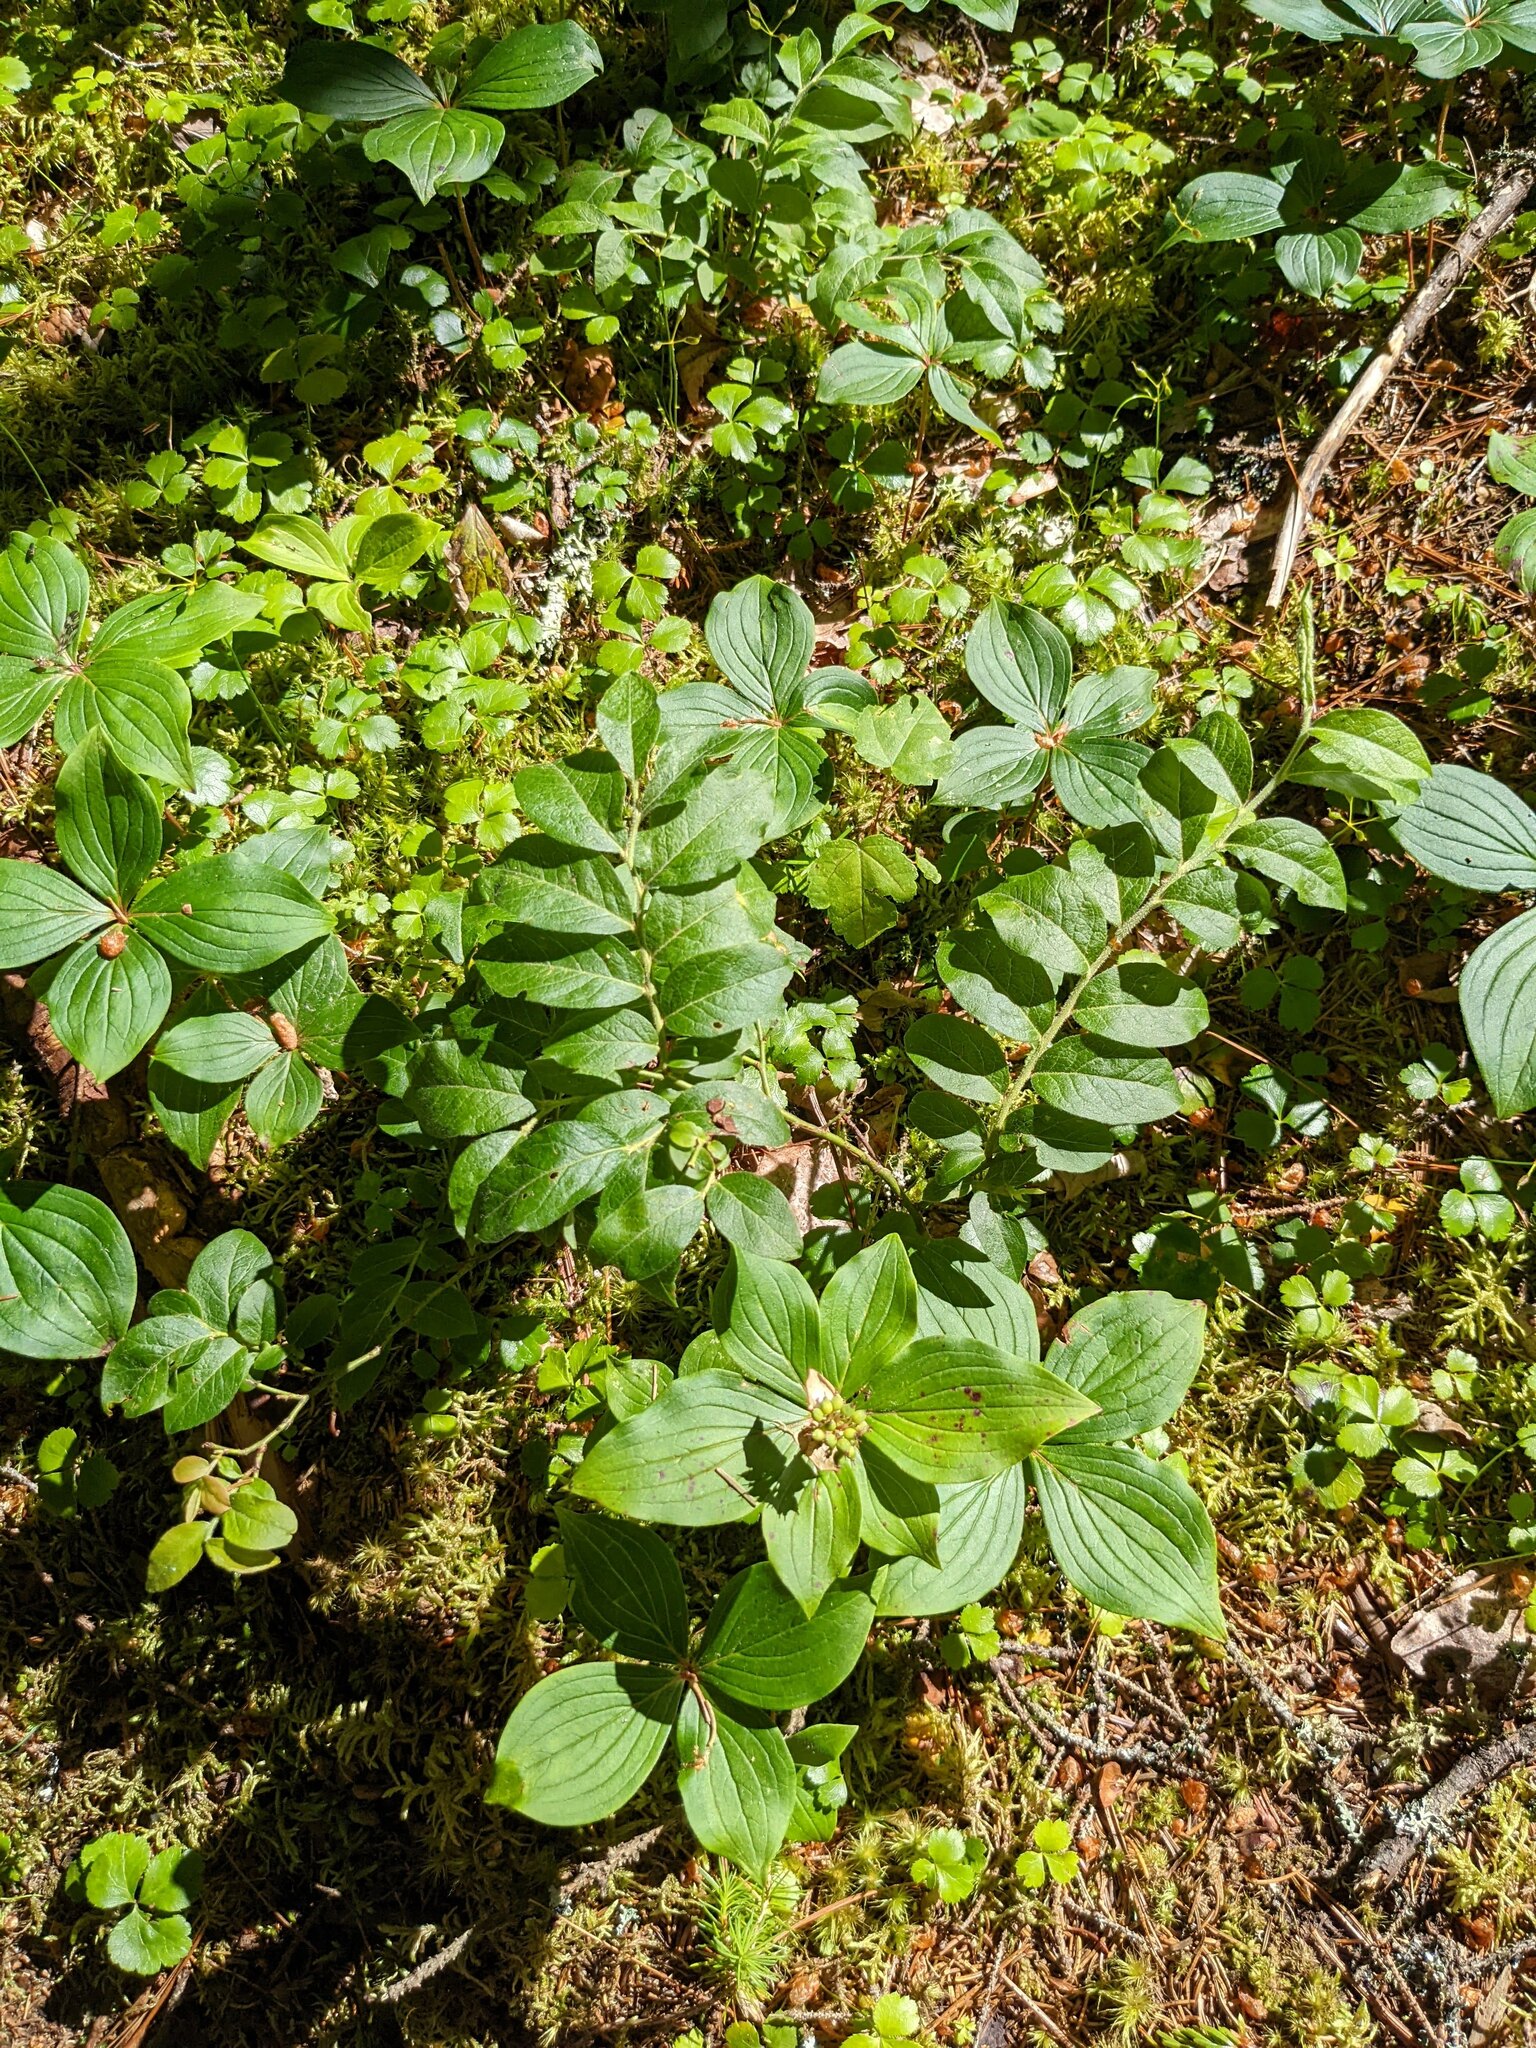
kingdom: Plantae
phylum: Tracheophyta
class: Magnoliopsida
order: Cornales
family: Cornaceae
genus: Cornus
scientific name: Cornus canadensis
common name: Creeping dogwood
